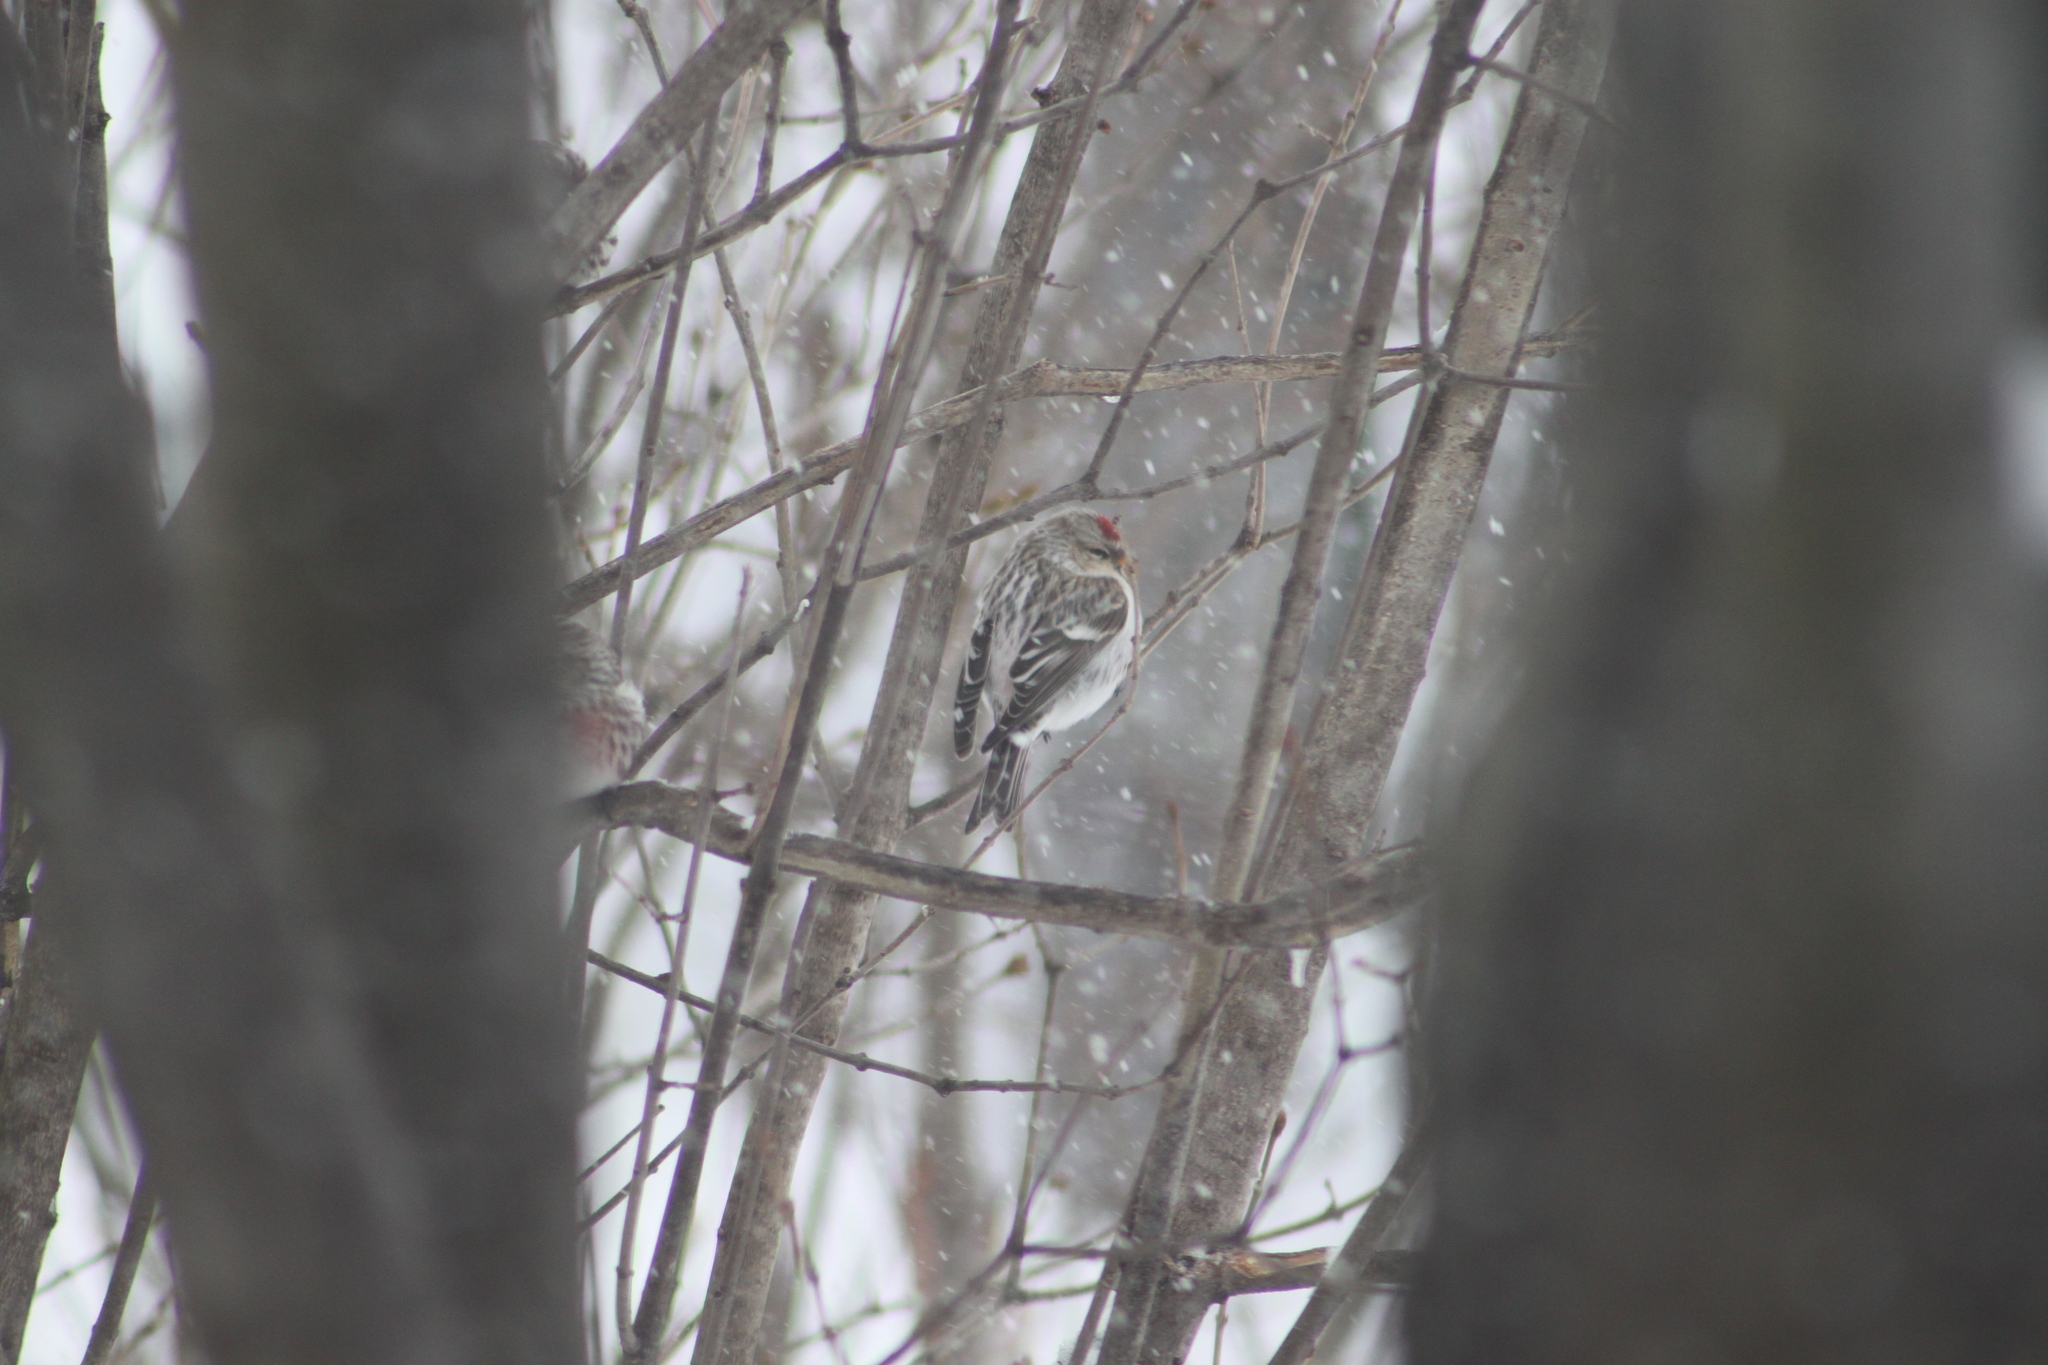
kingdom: Animalia
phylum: Chordata
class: Aves
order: Passeriformes
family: Fringillidae
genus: Acanthis
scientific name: Acanthis hornemanni
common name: Arctic redpoll
